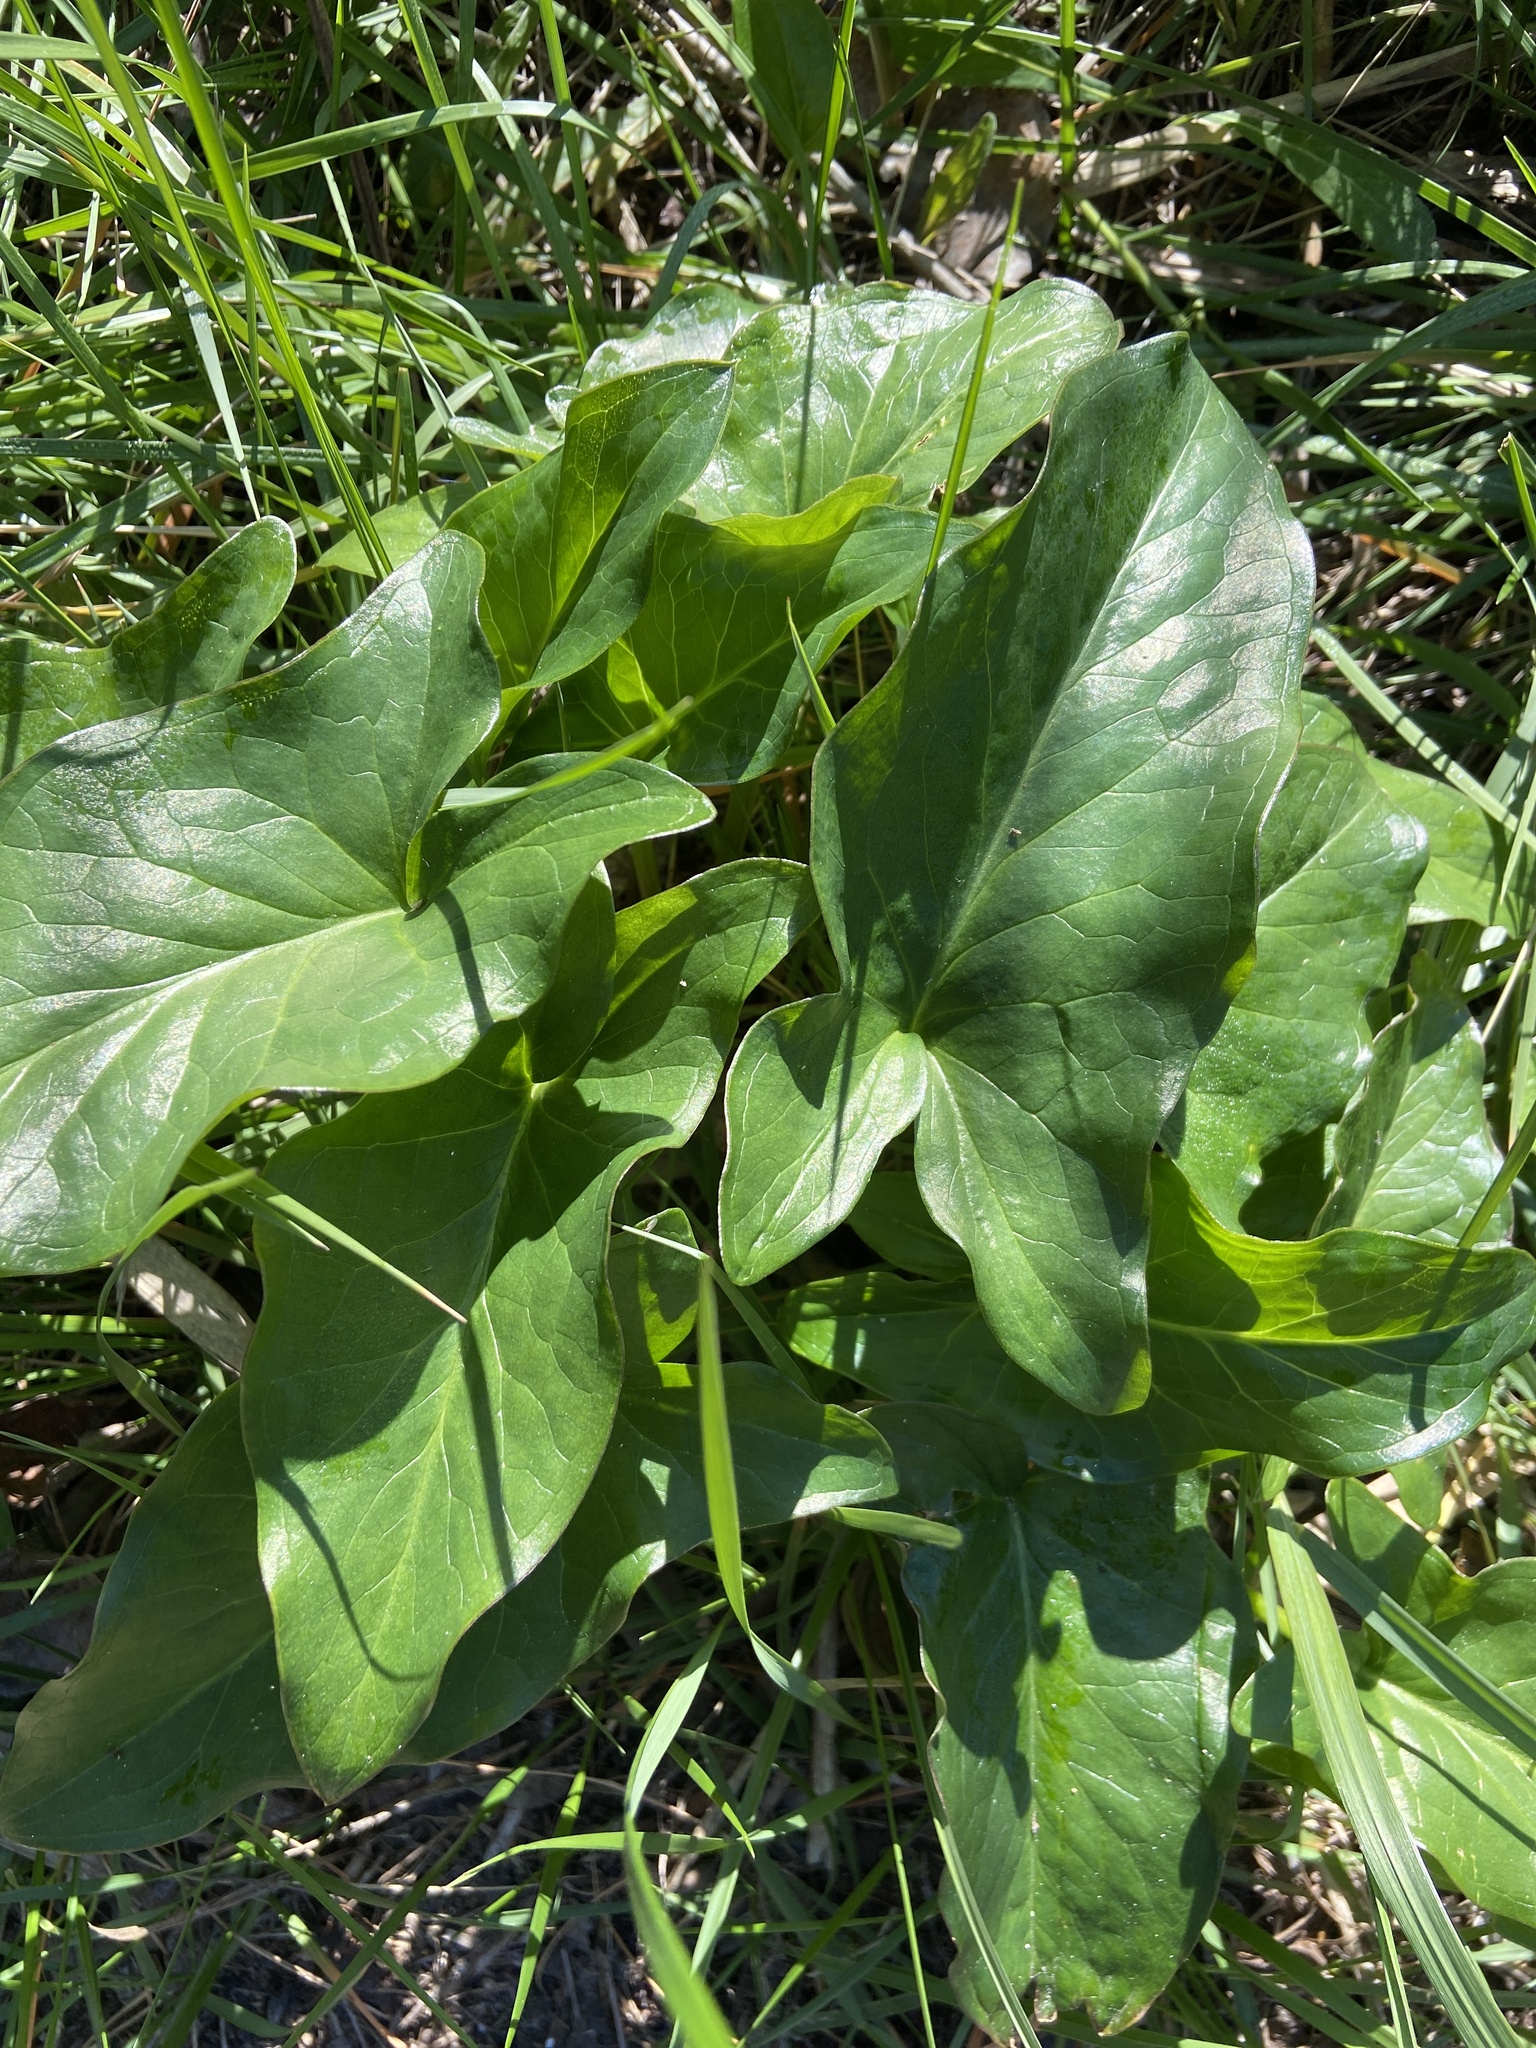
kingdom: Plantae
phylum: Tracheophyta
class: Liliopsida
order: Alismatales
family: Araceae
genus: Arum
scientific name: Arum italicum
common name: Italian lords-and-ladies
